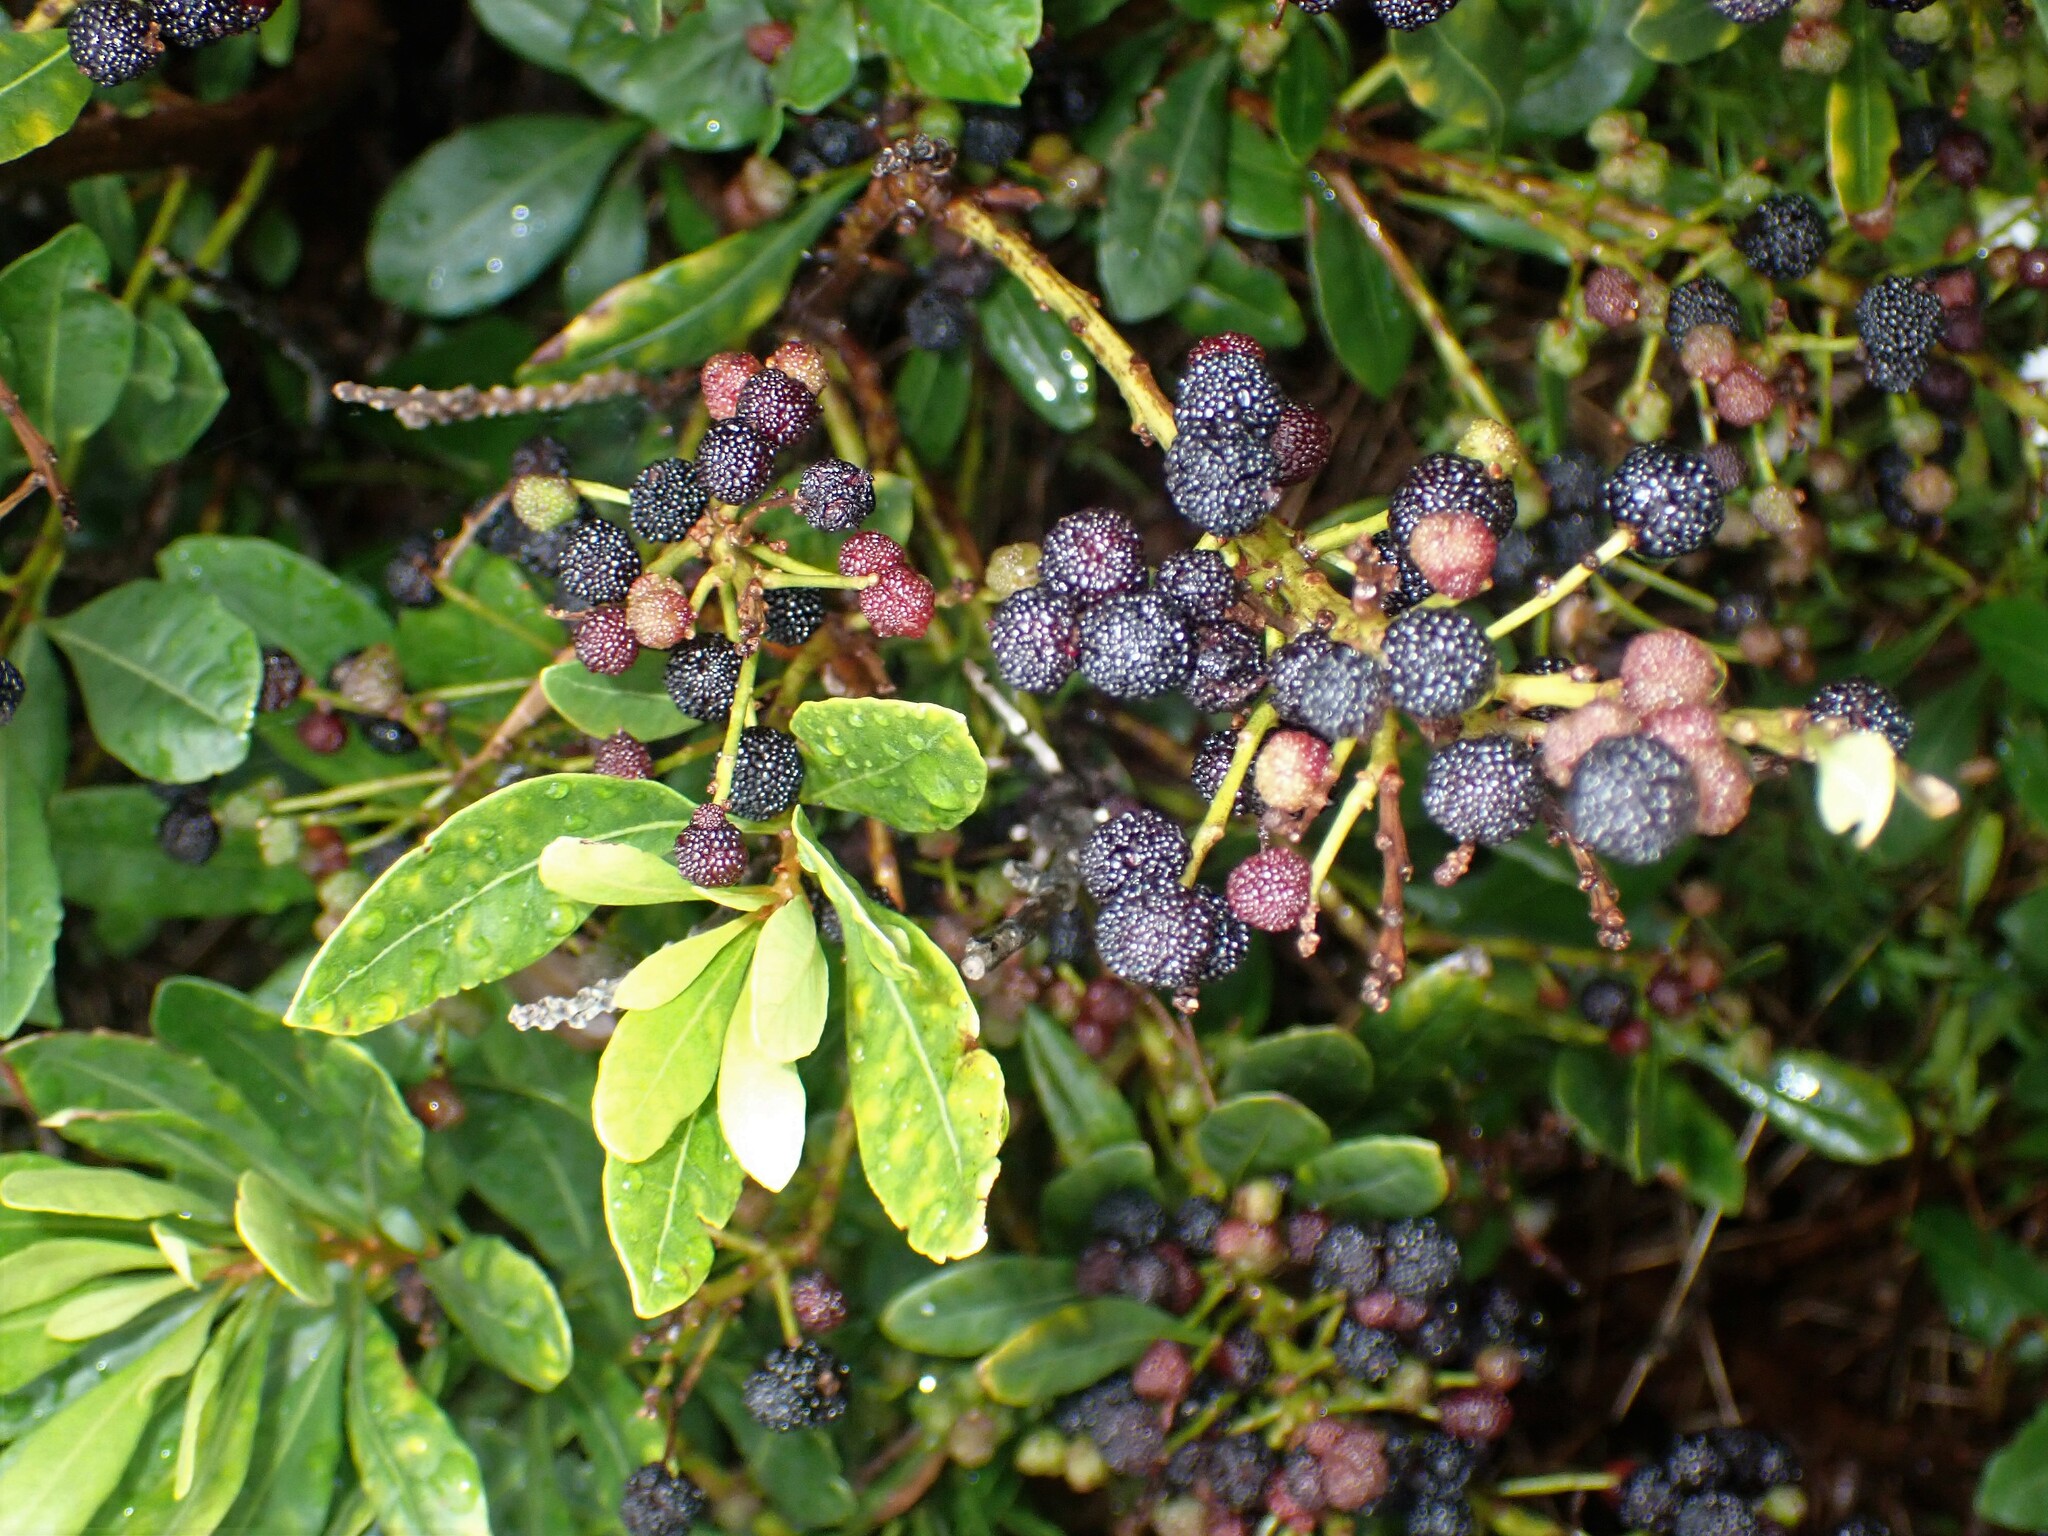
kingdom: Plantae
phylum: Tracheophyta
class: Magnoliopsida
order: Fagales
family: Myricaceae
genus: Morella
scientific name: Morella faya
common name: Firetree
